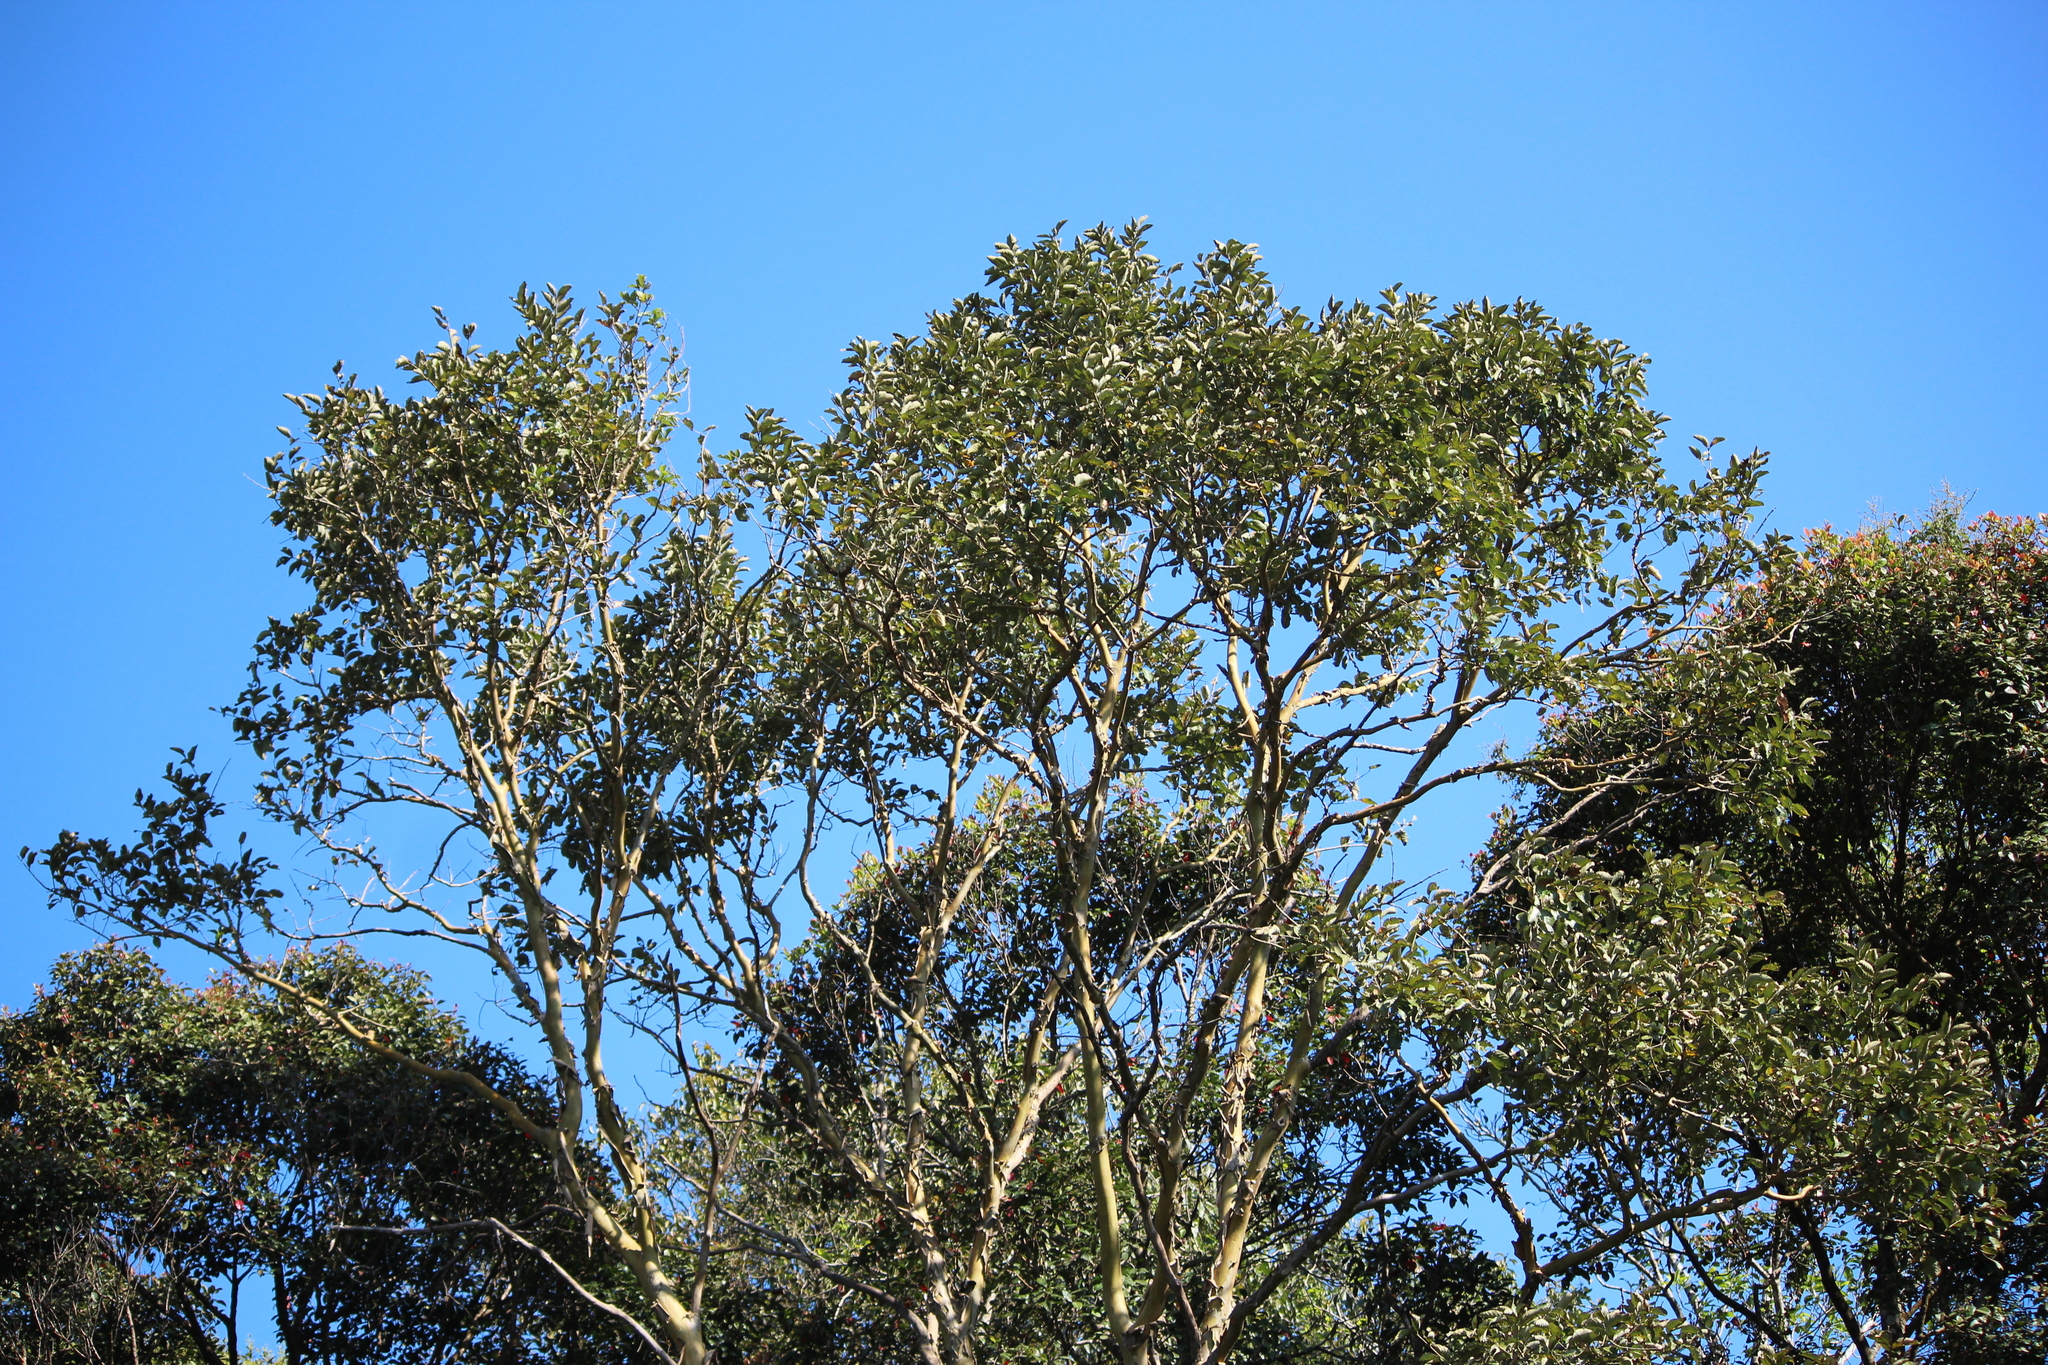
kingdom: Plantae
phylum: Tracheophyta
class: Magnoliopsida
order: Myrtales
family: Lythraceae
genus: Lagerstroemia
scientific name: Lagerstroemia microcarpa
